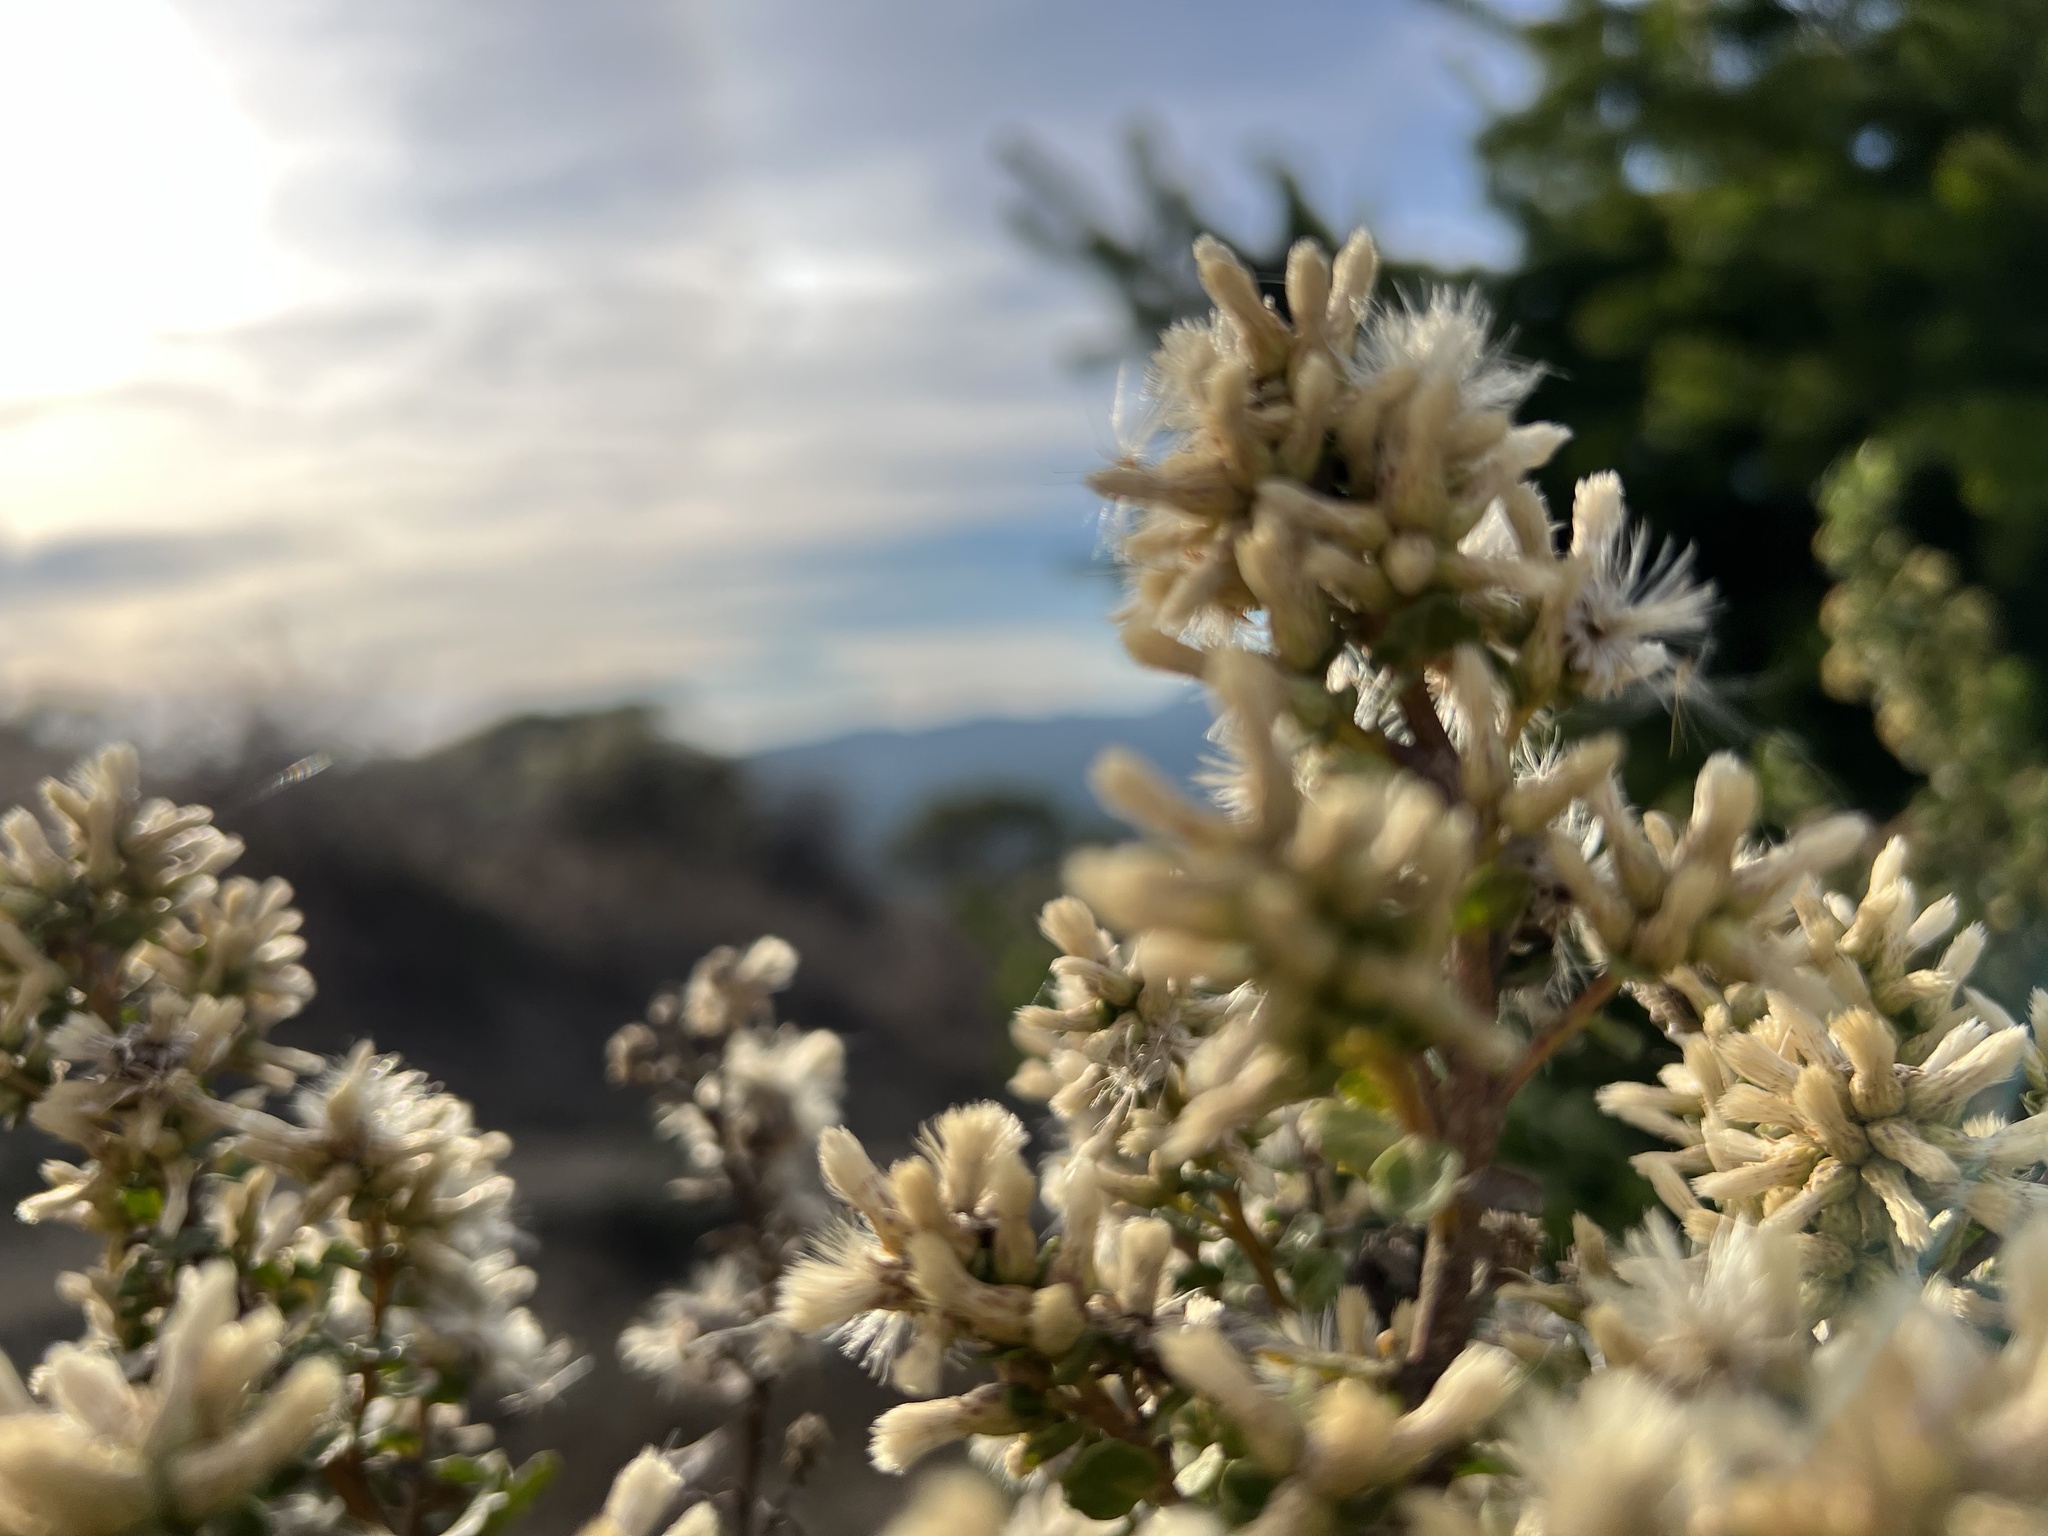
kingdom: Plantae
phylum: Tracheophyta
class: Magnoliopsida
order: Asterales
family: Asteraceae
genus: Baccharis
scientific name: Baccharis pilularis
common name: Coyotebrush
